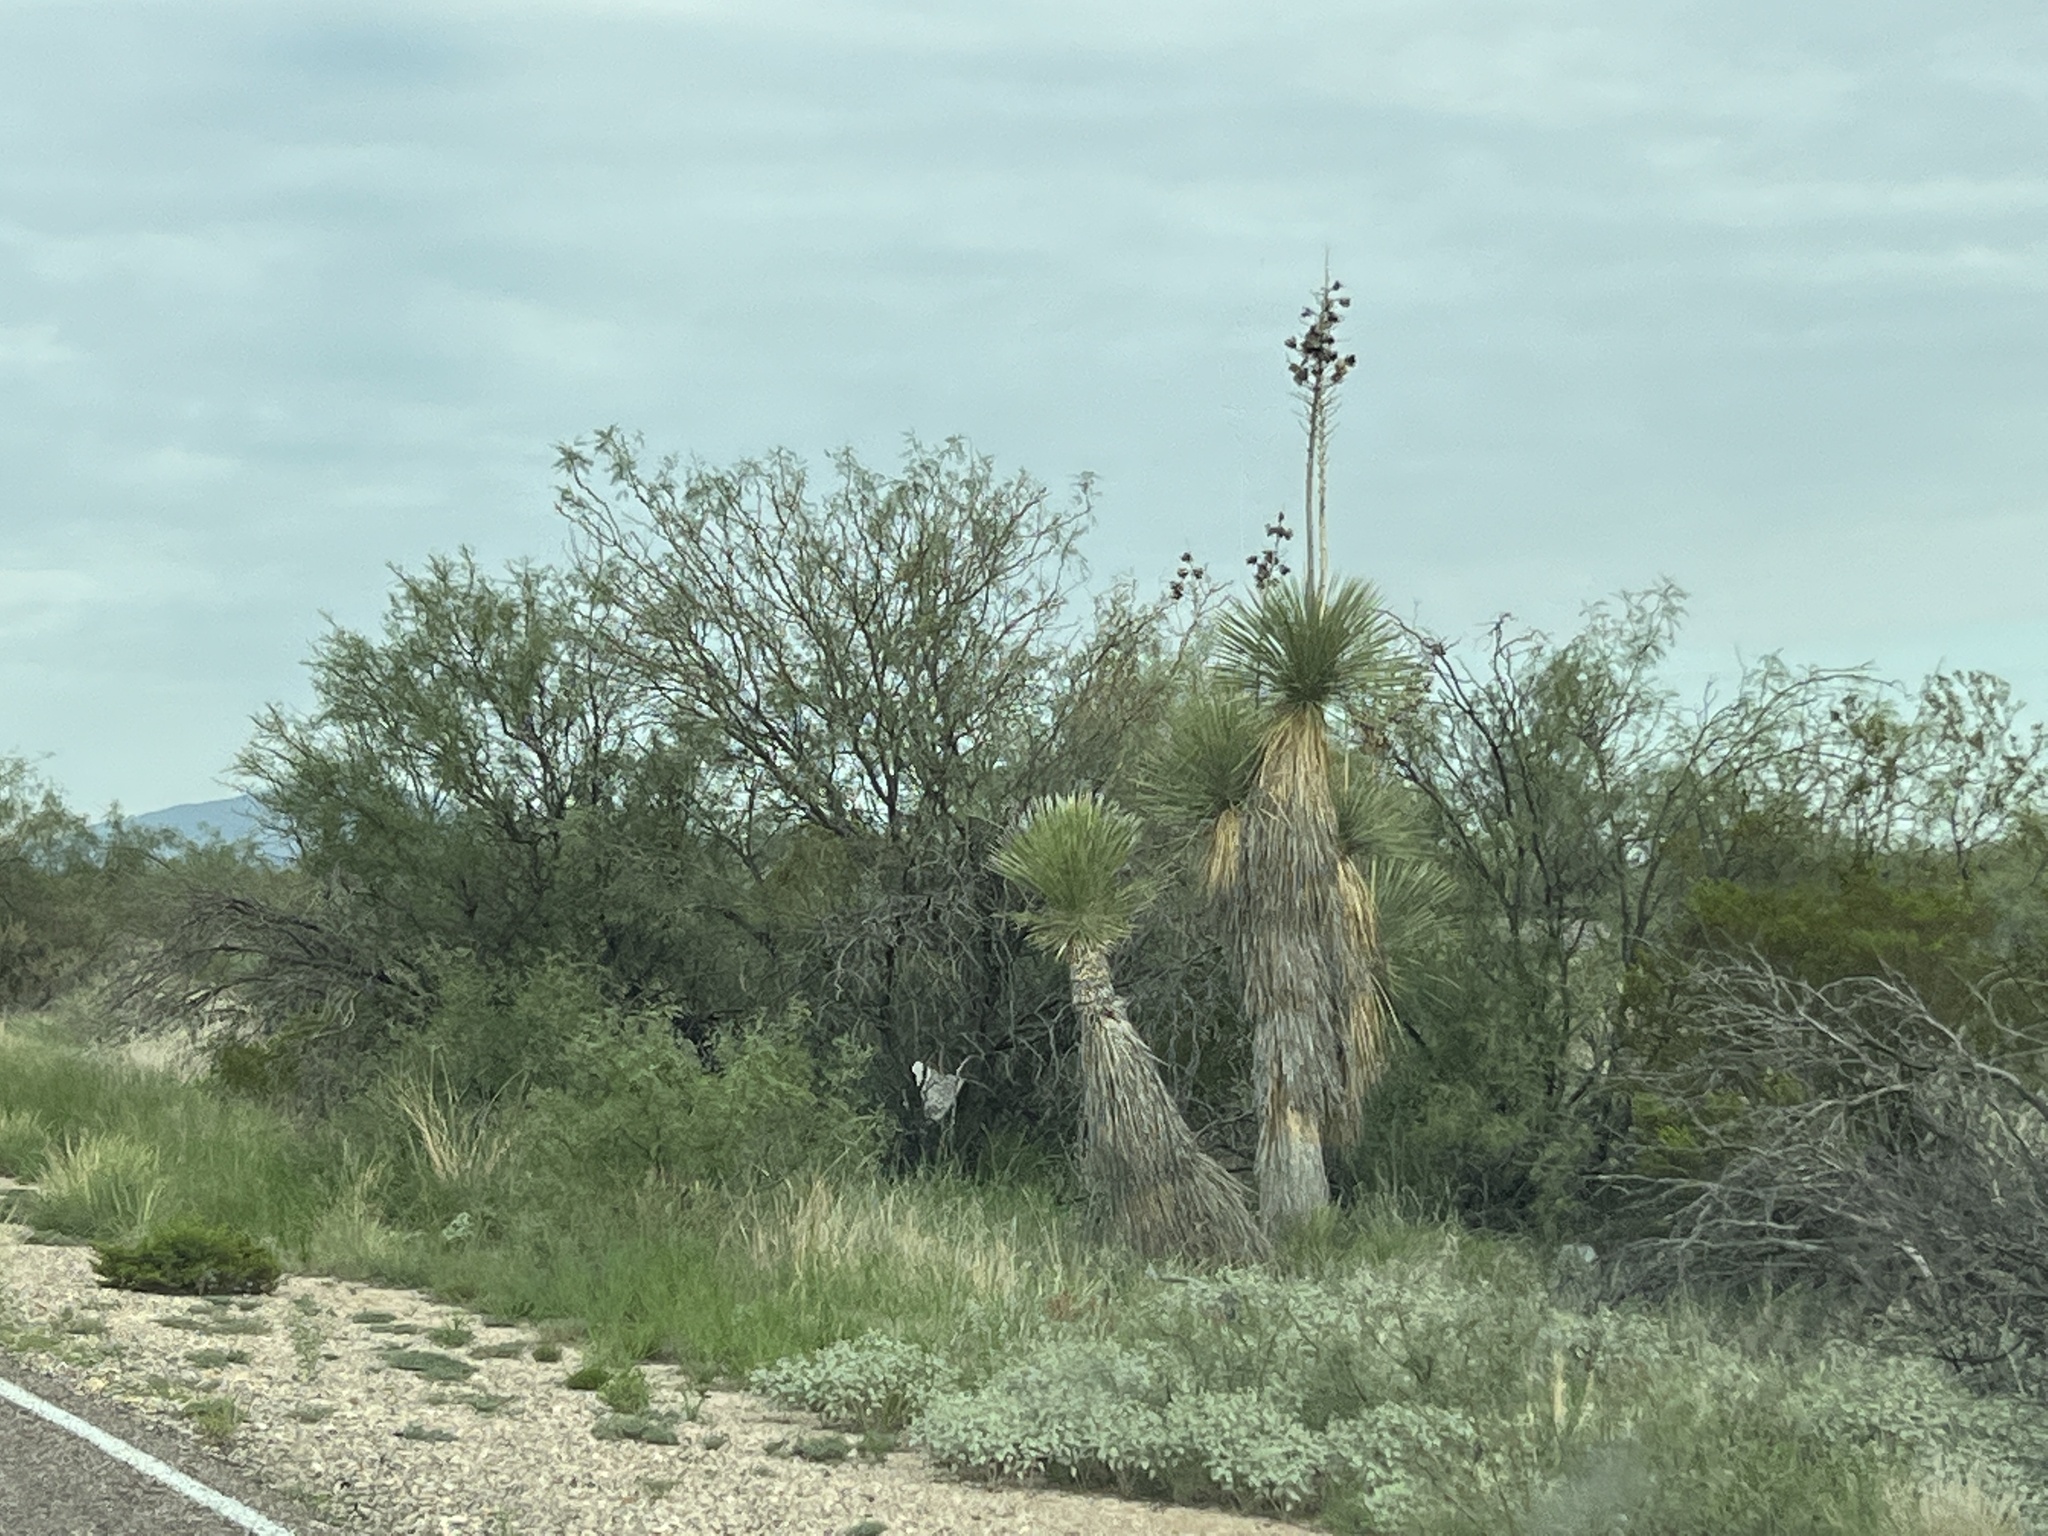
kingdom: Plantae
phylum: Tracheophyta
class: Liliopsida
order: Asparagales
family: Asparagaceae
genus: Yucca
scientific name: Yucca elata
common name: Palmella
